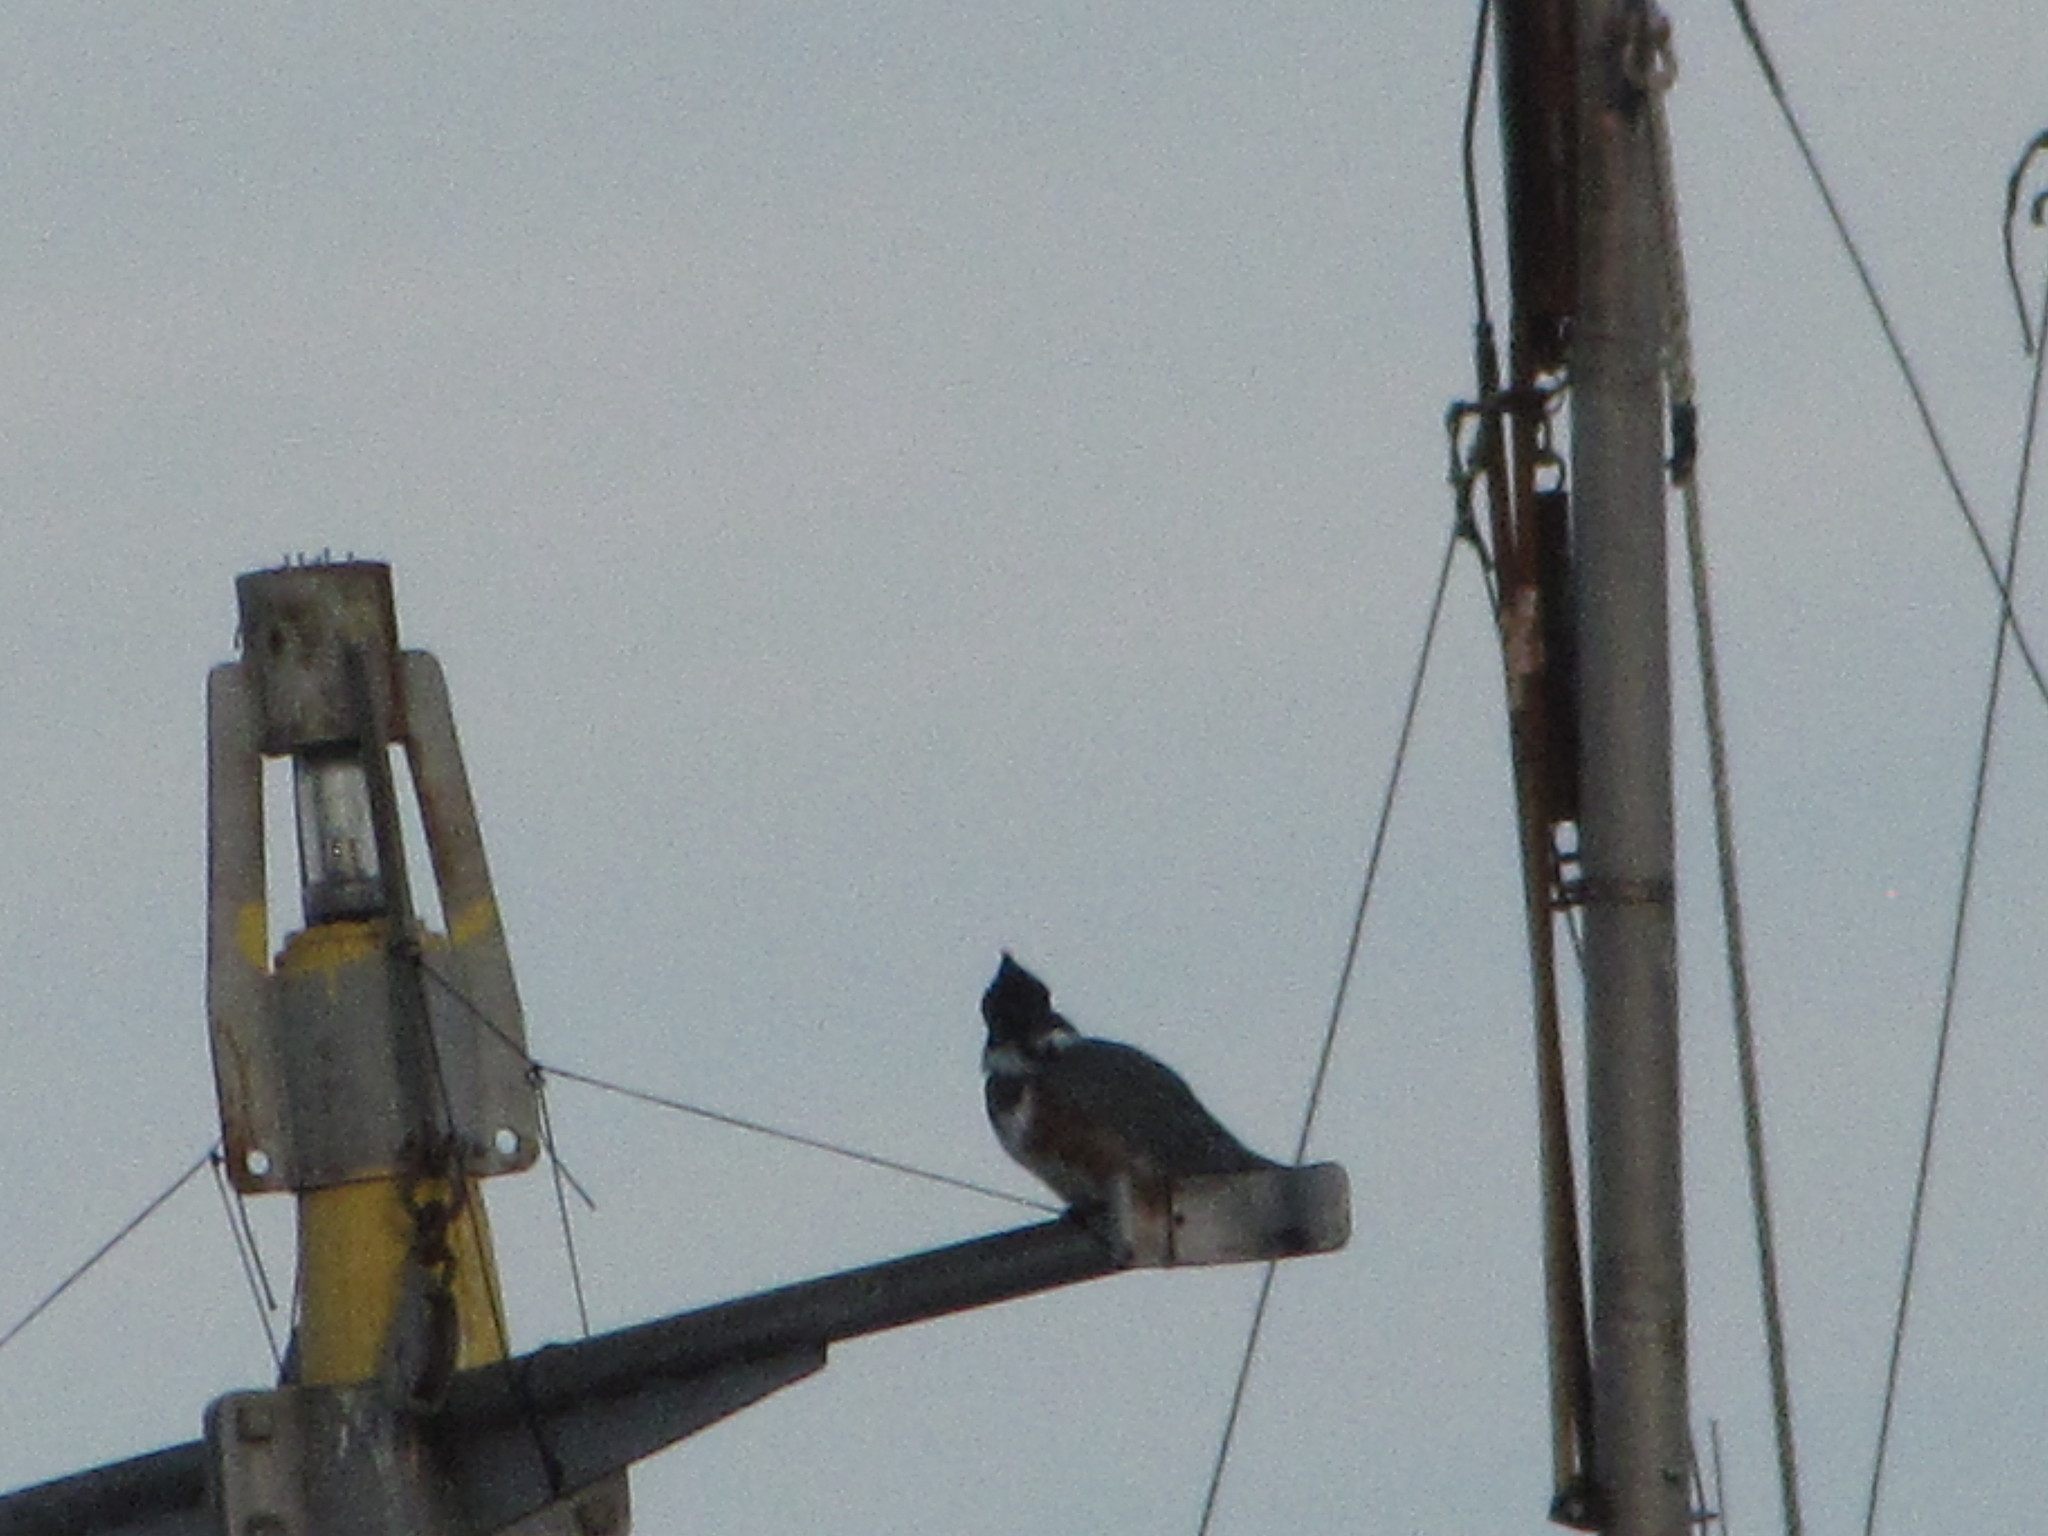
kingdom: Animalia
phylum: Chordata
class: Aves
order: Coraciiformes
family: Alcedinidae
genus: Megaceryle
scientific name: Megaceryle alcyon
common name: Belted kingfisher
